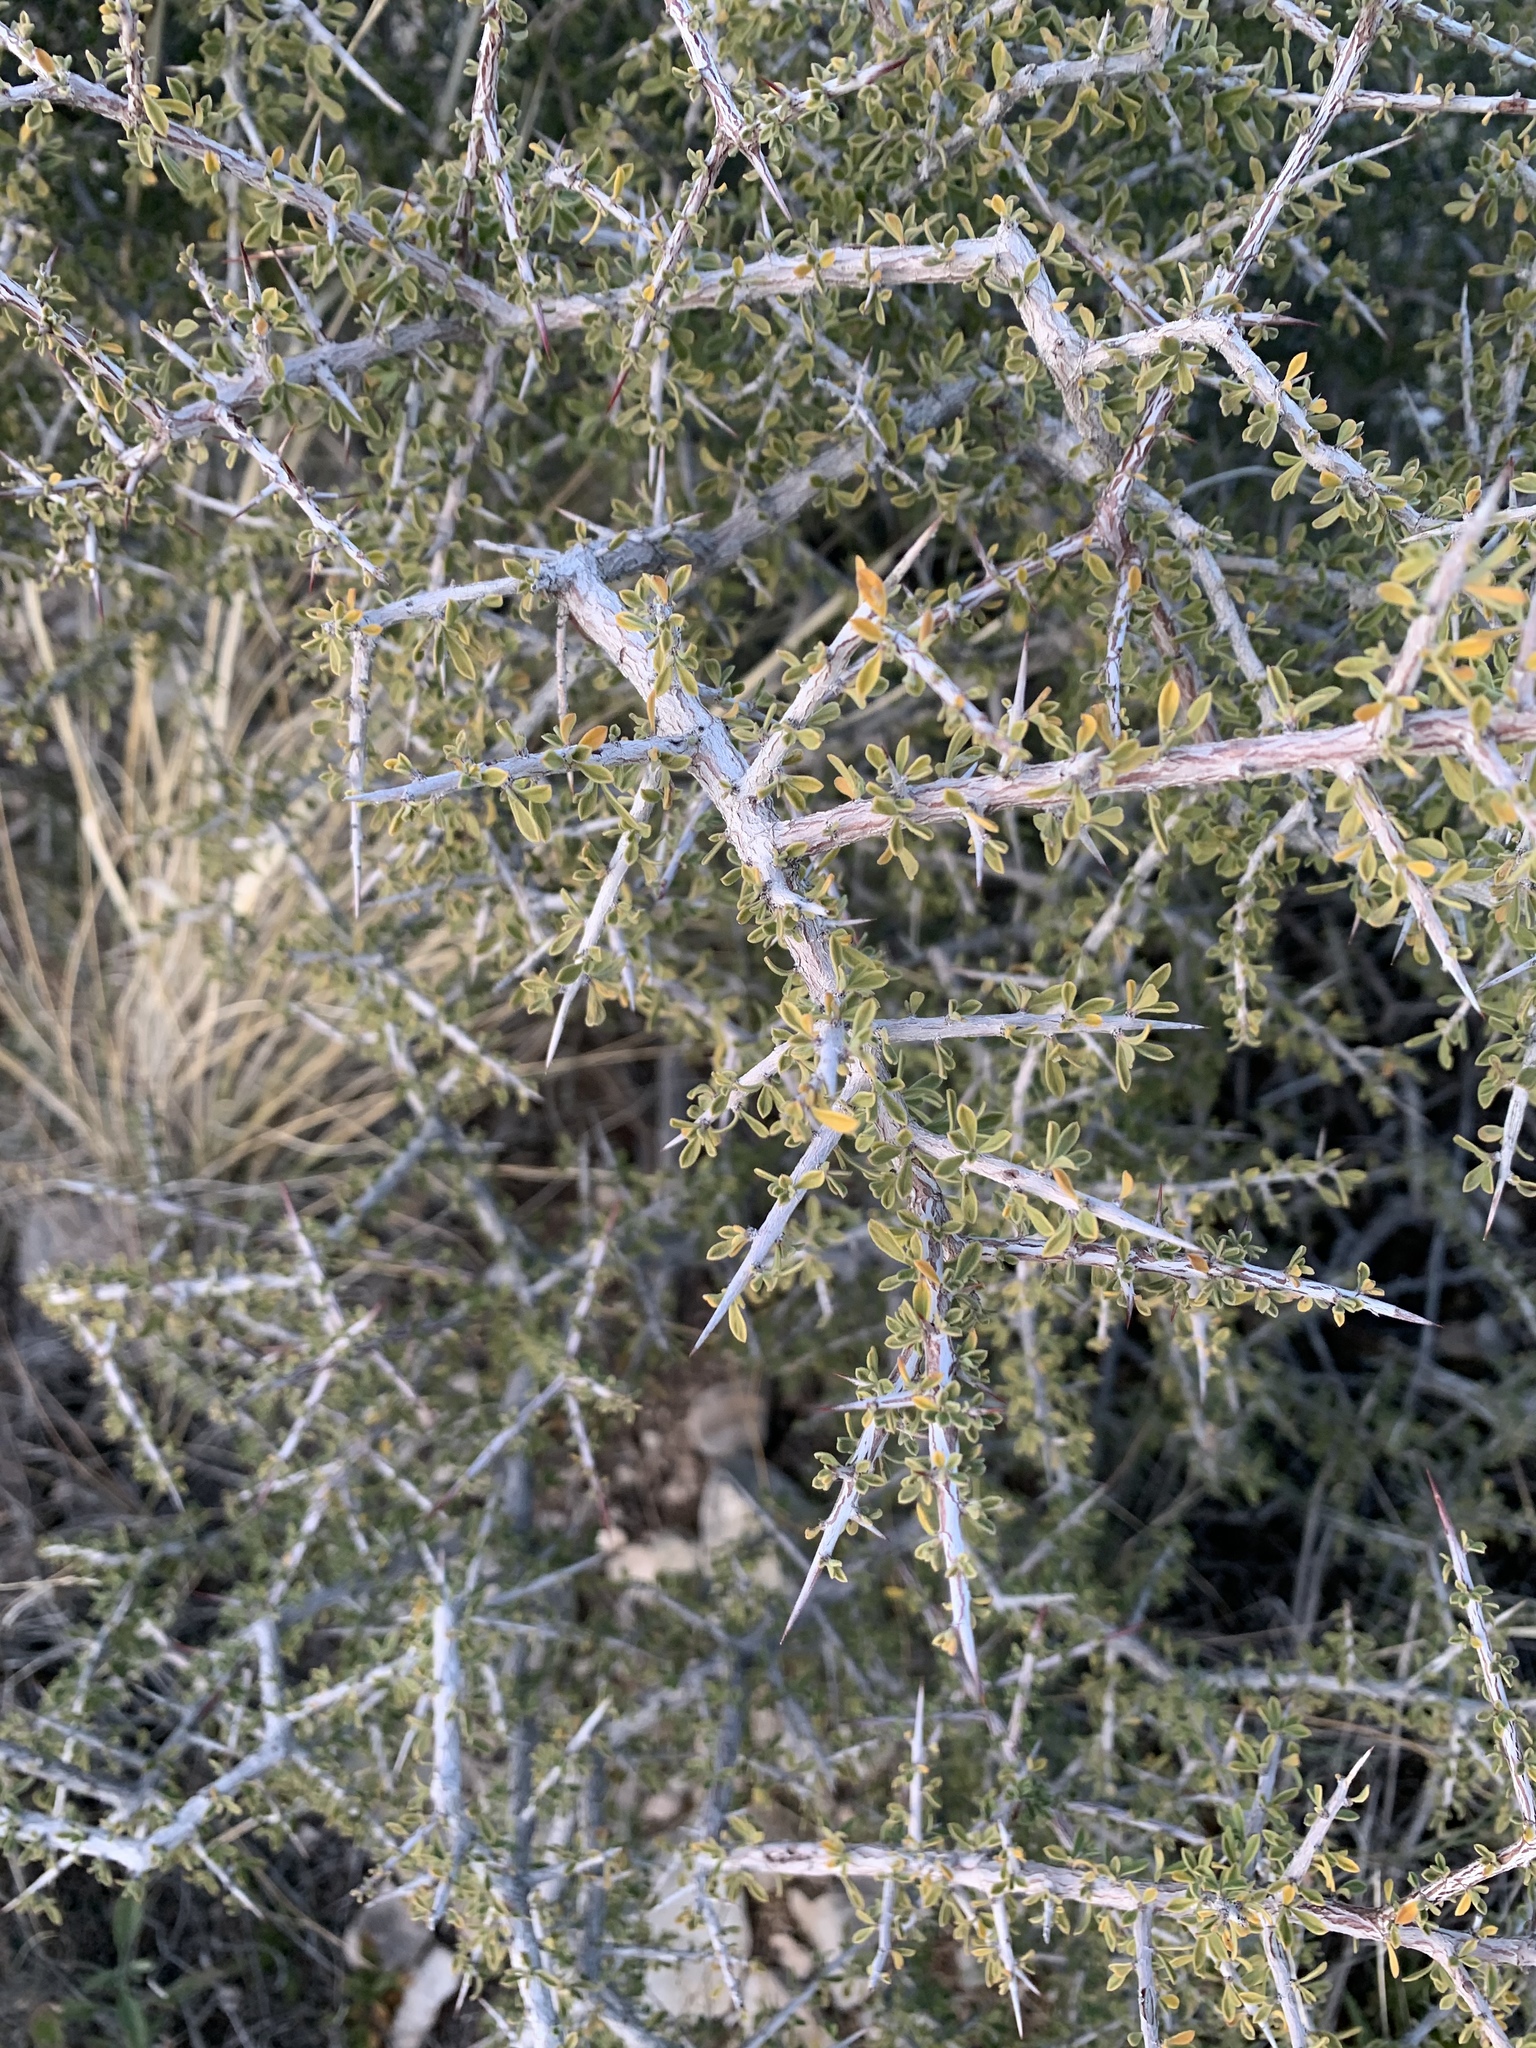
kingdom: Plantae
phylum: Tracheophyta
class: Magnoliopsida
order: Rosales
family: Rhamnaceae
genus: Condalia
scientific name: Condalia warnockii
